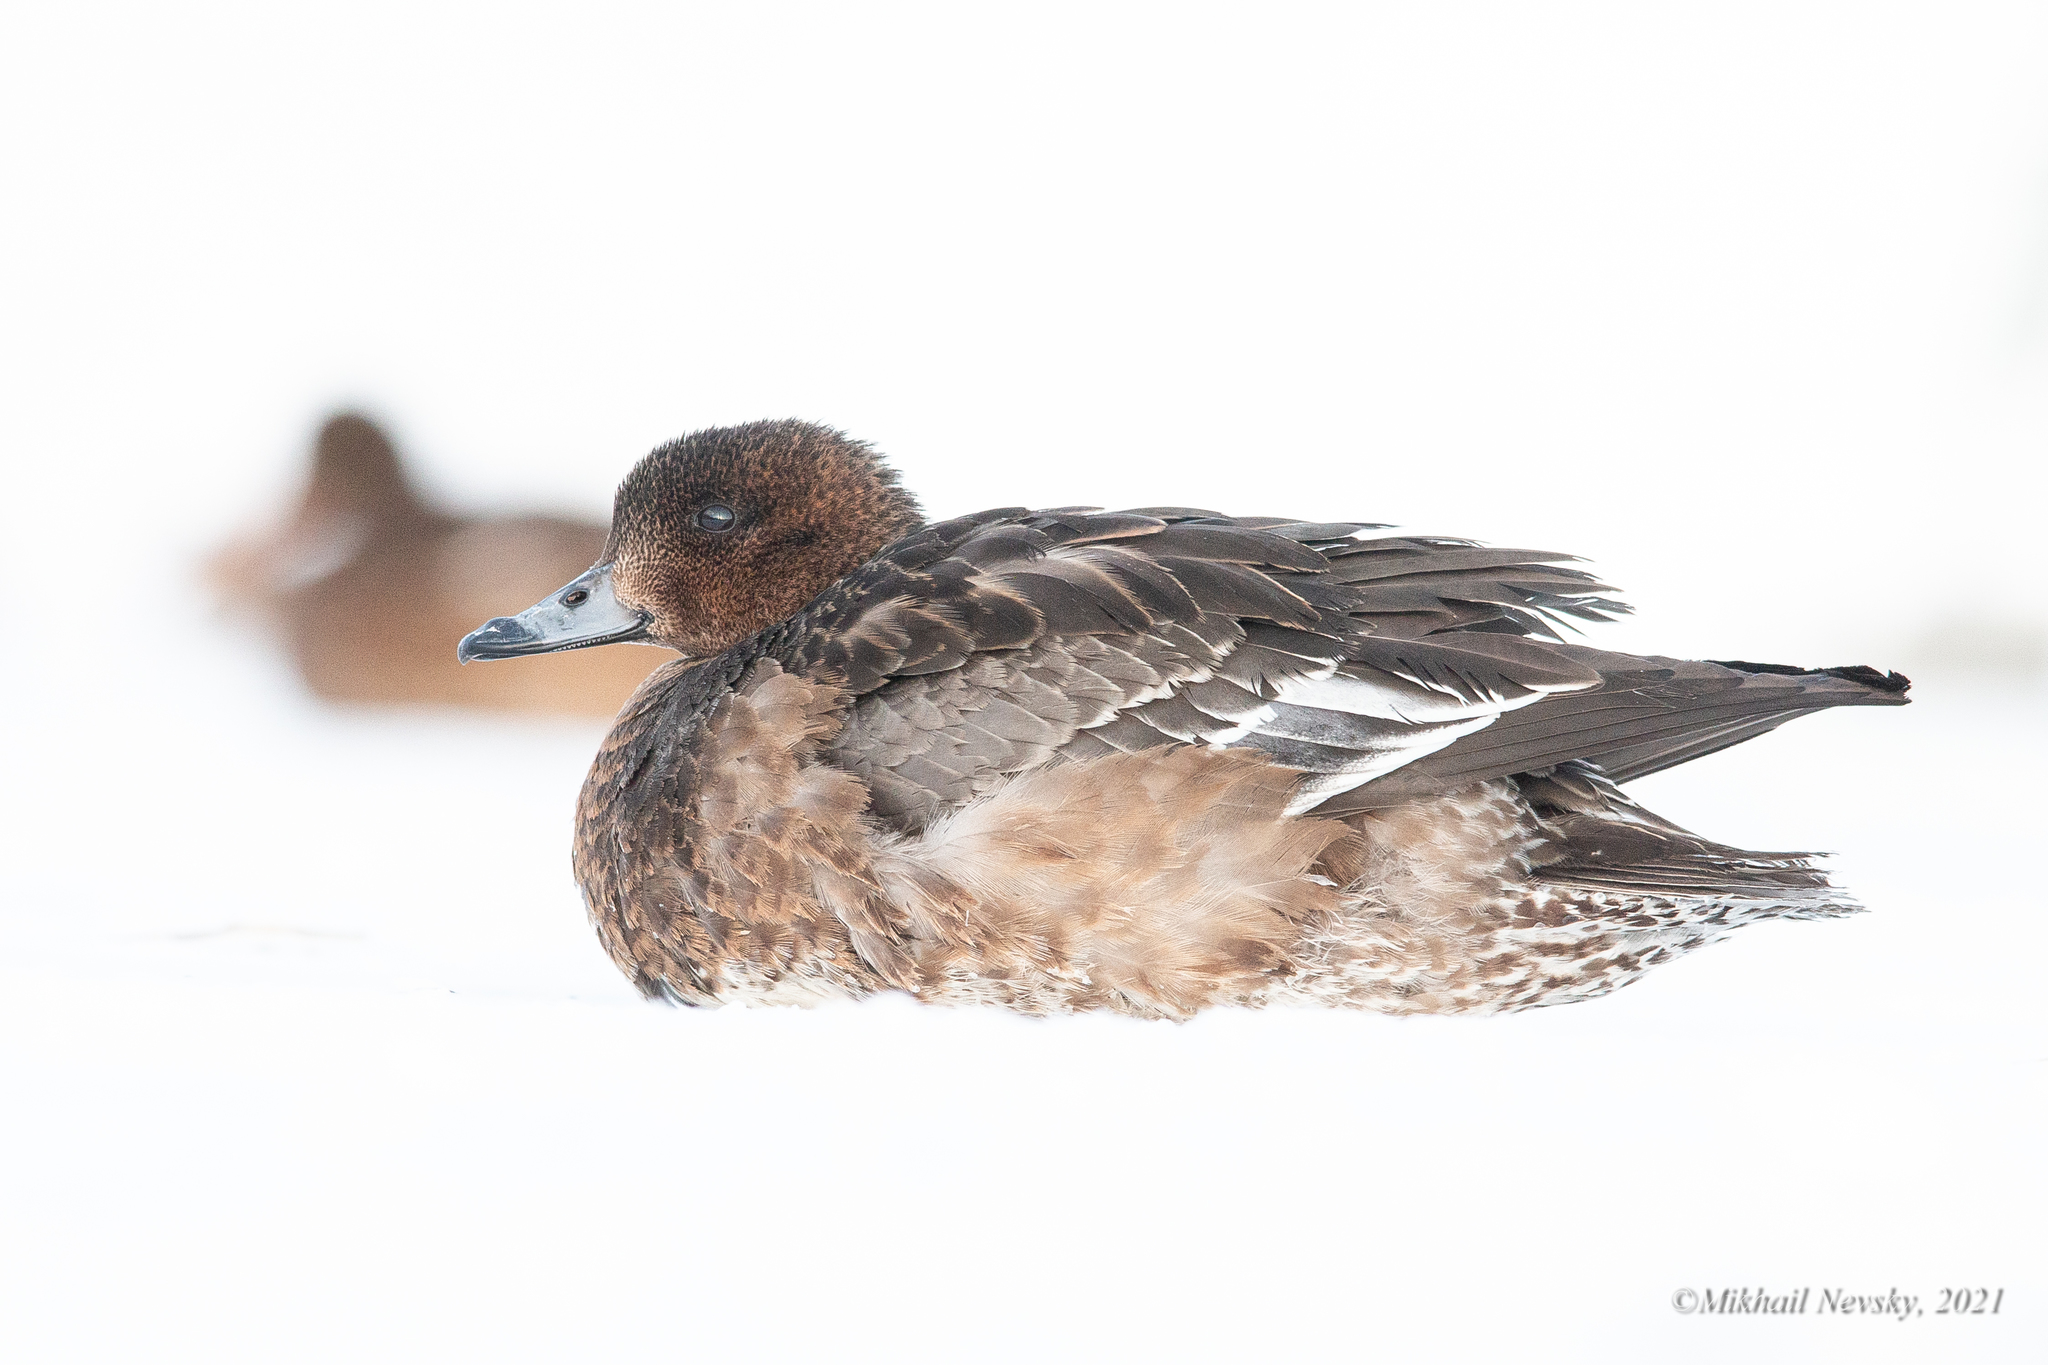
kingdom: Animalia
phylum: Chordata
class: Aves
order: Anseriformes
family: Anatidae
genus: Mareca
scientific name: Mareca penelope
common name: Eurasian wigeon
